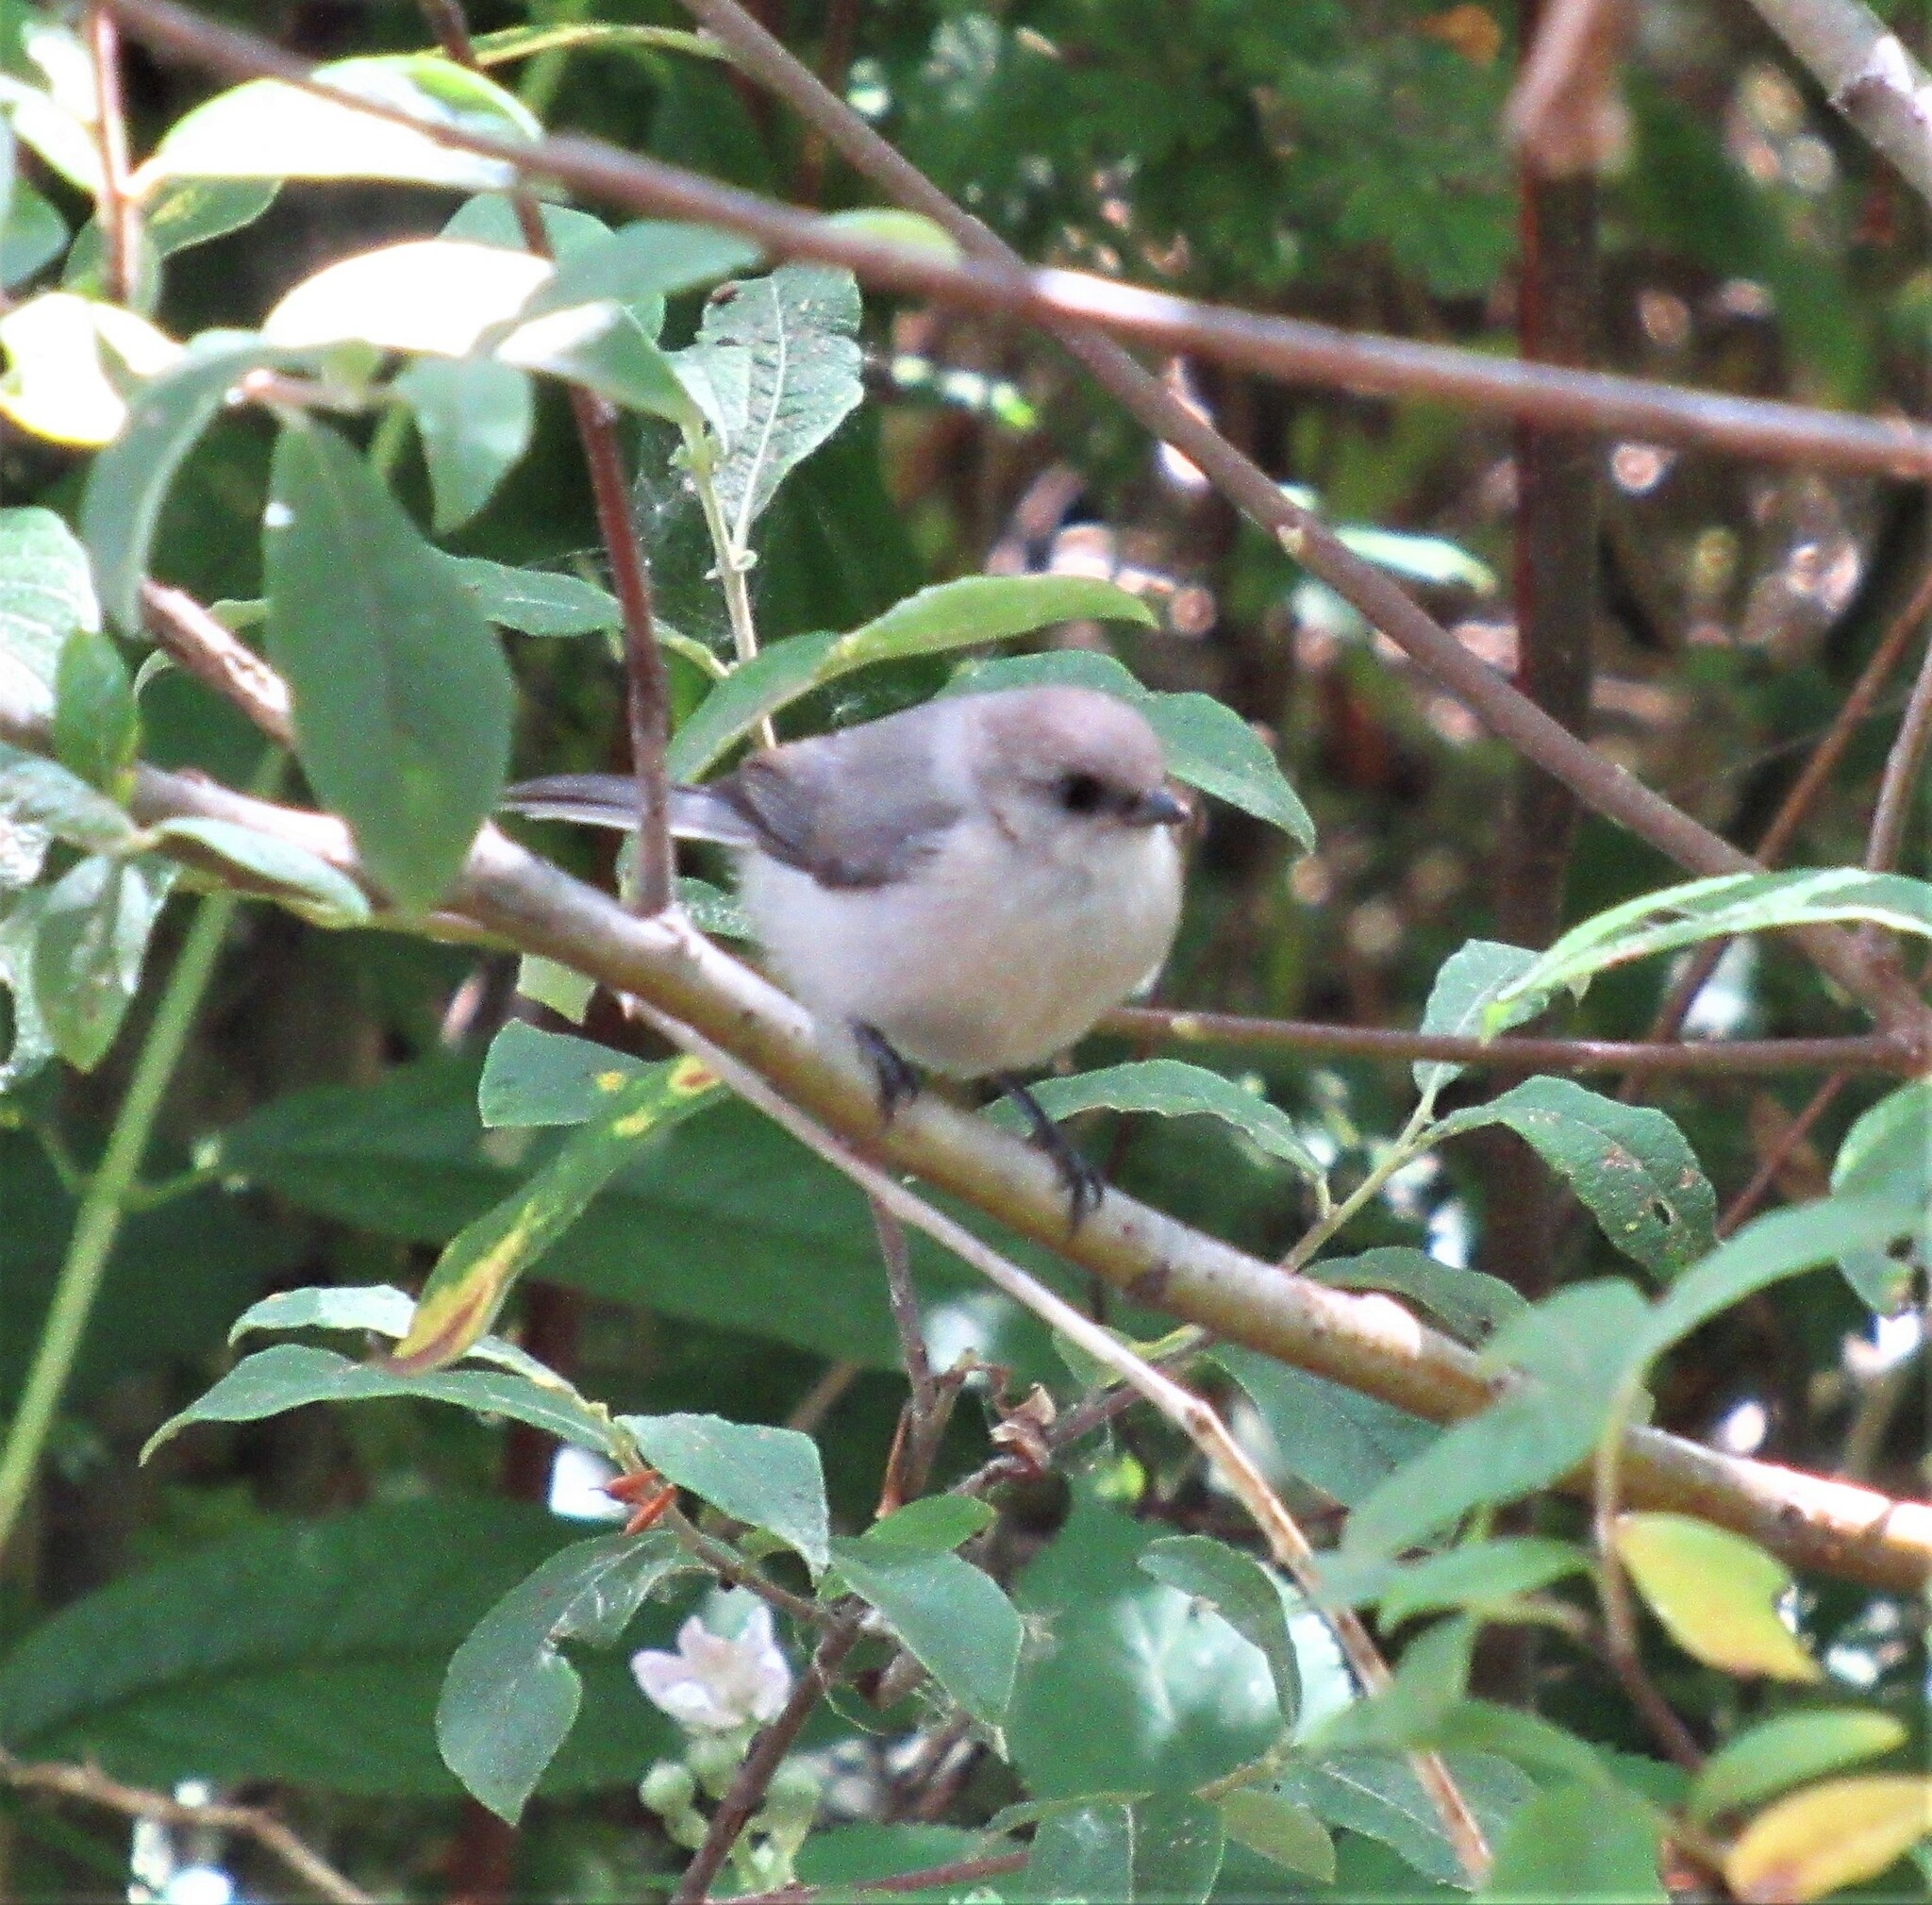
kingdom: Animalia
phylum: Chordata
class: Aves
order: Passeriformes
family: Aegithalidae
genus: Psaltriparus
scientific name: Psaltriparus minimus
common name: American bushtit
